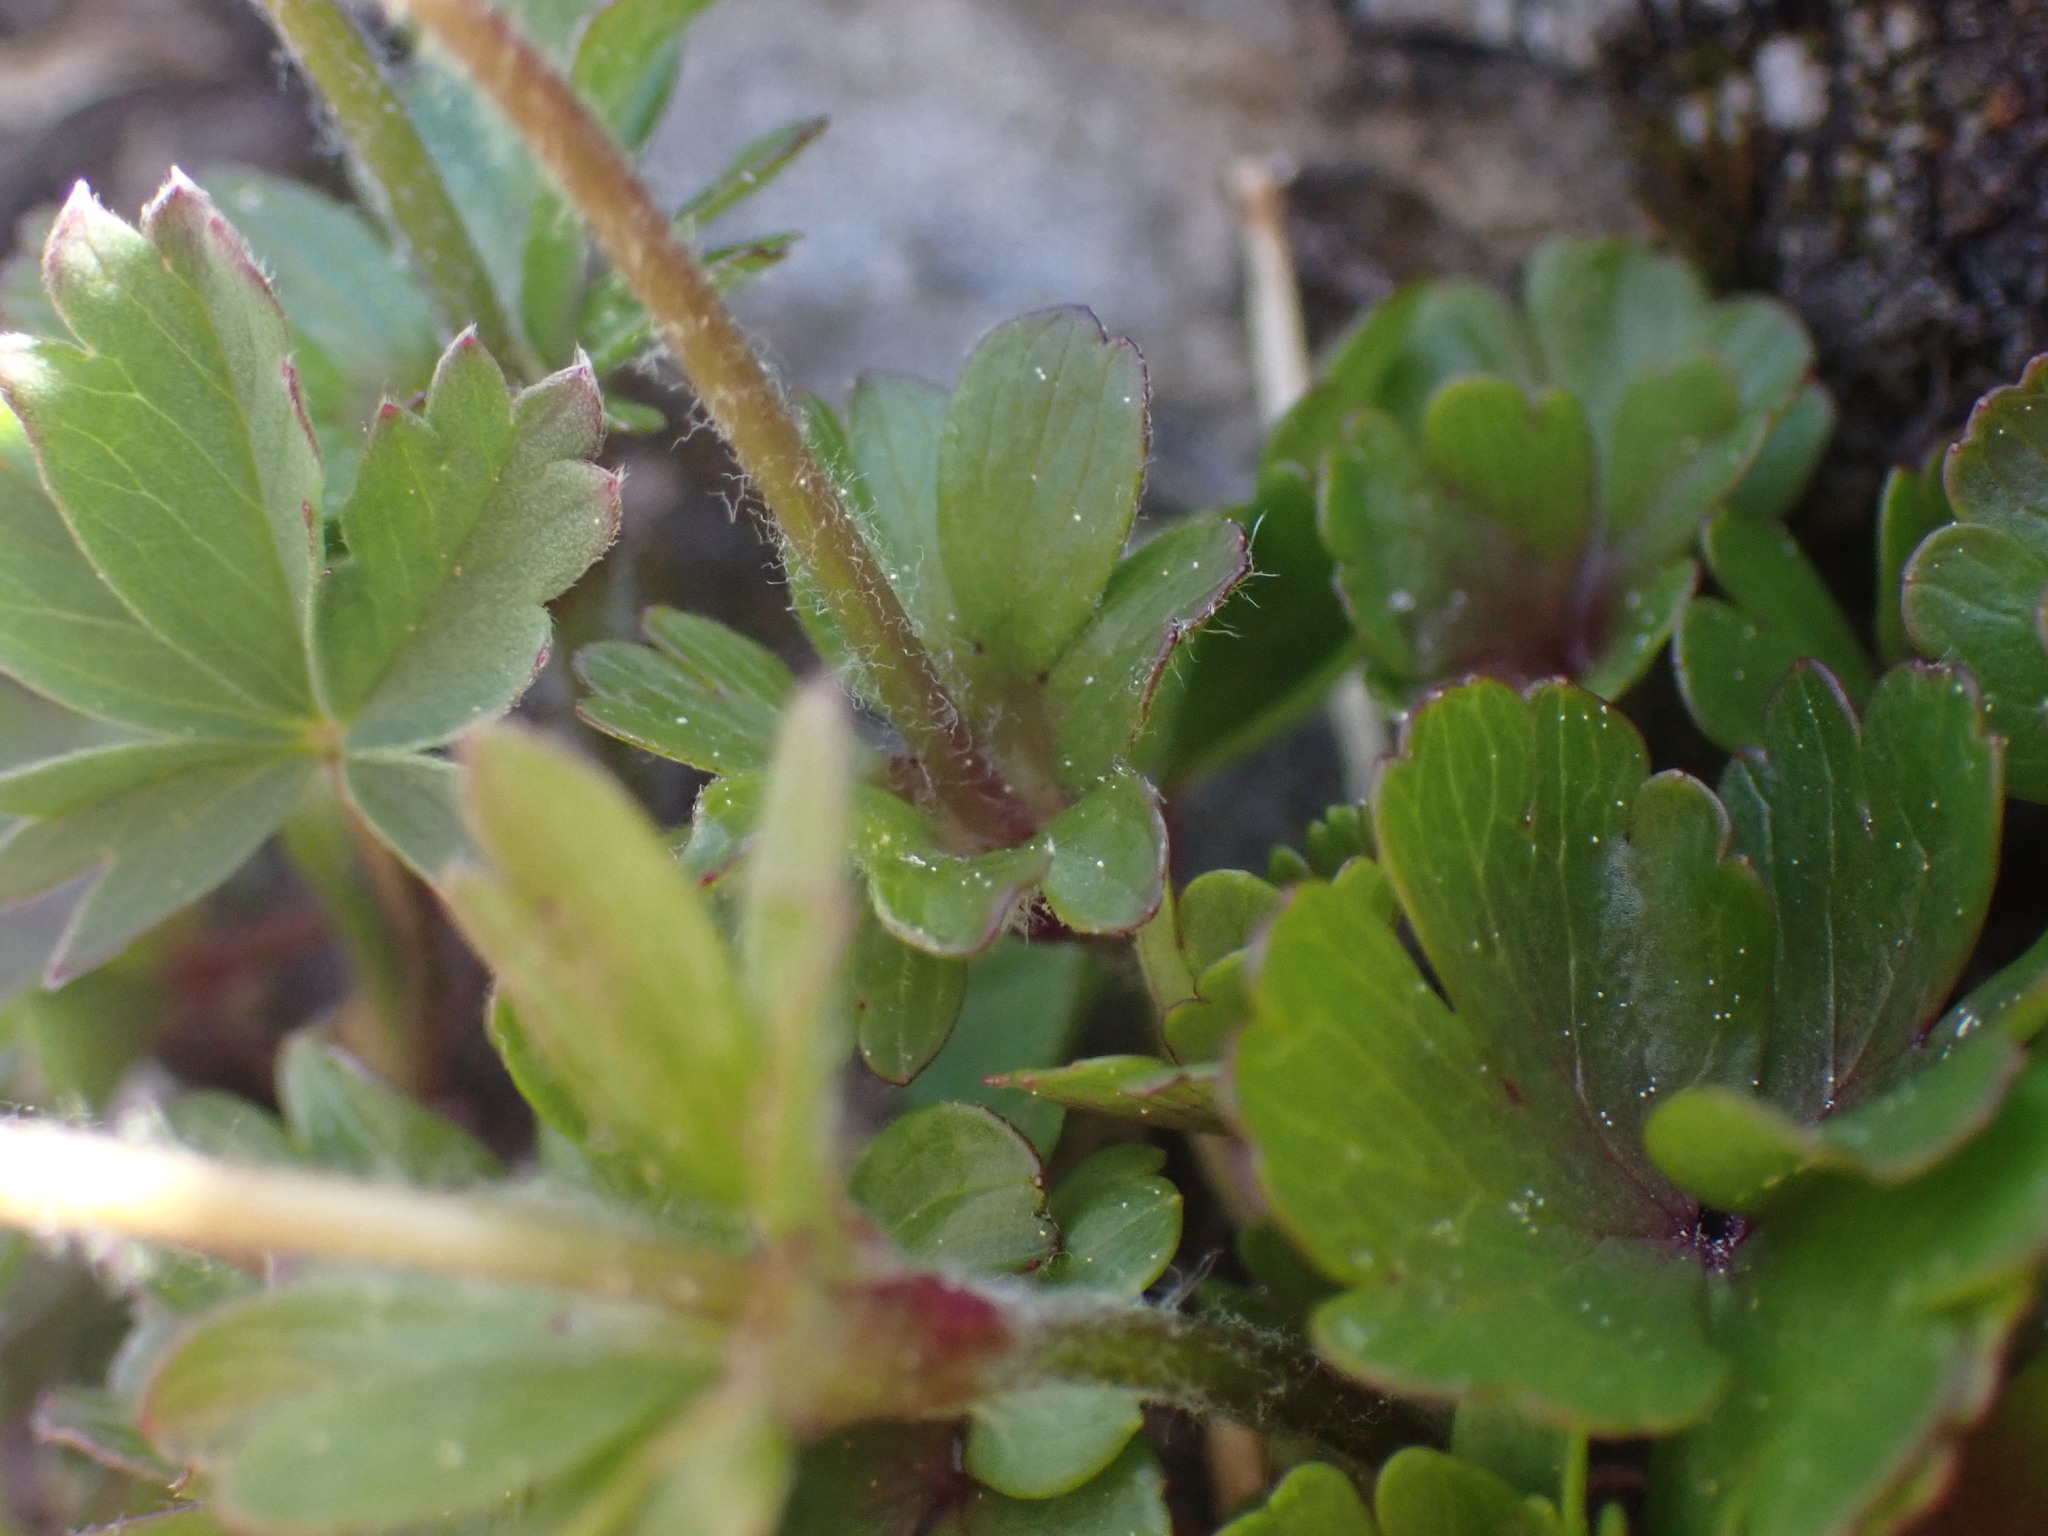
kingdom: Plantae
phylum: Tracheophyta
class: Magnoliopsida
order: Ranunculales
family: Ranunculaceae
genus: Anemone
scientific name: Anemone parviflora
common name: Northern anemone
